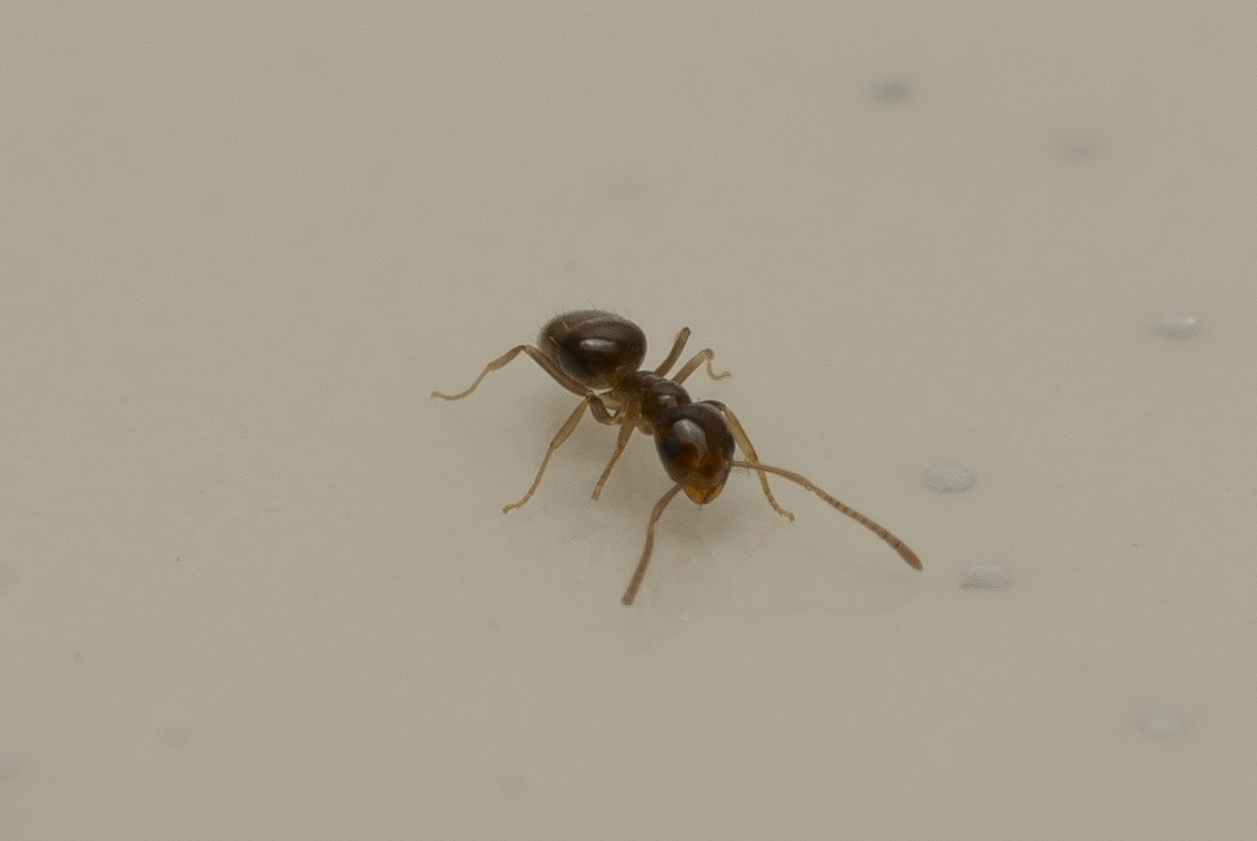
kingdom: Animalia
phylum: Arthropoda
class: Insecta
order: Hymenoptera
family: Formicidae
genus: Plagiolepis
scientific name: Plagiolepis pallescens
